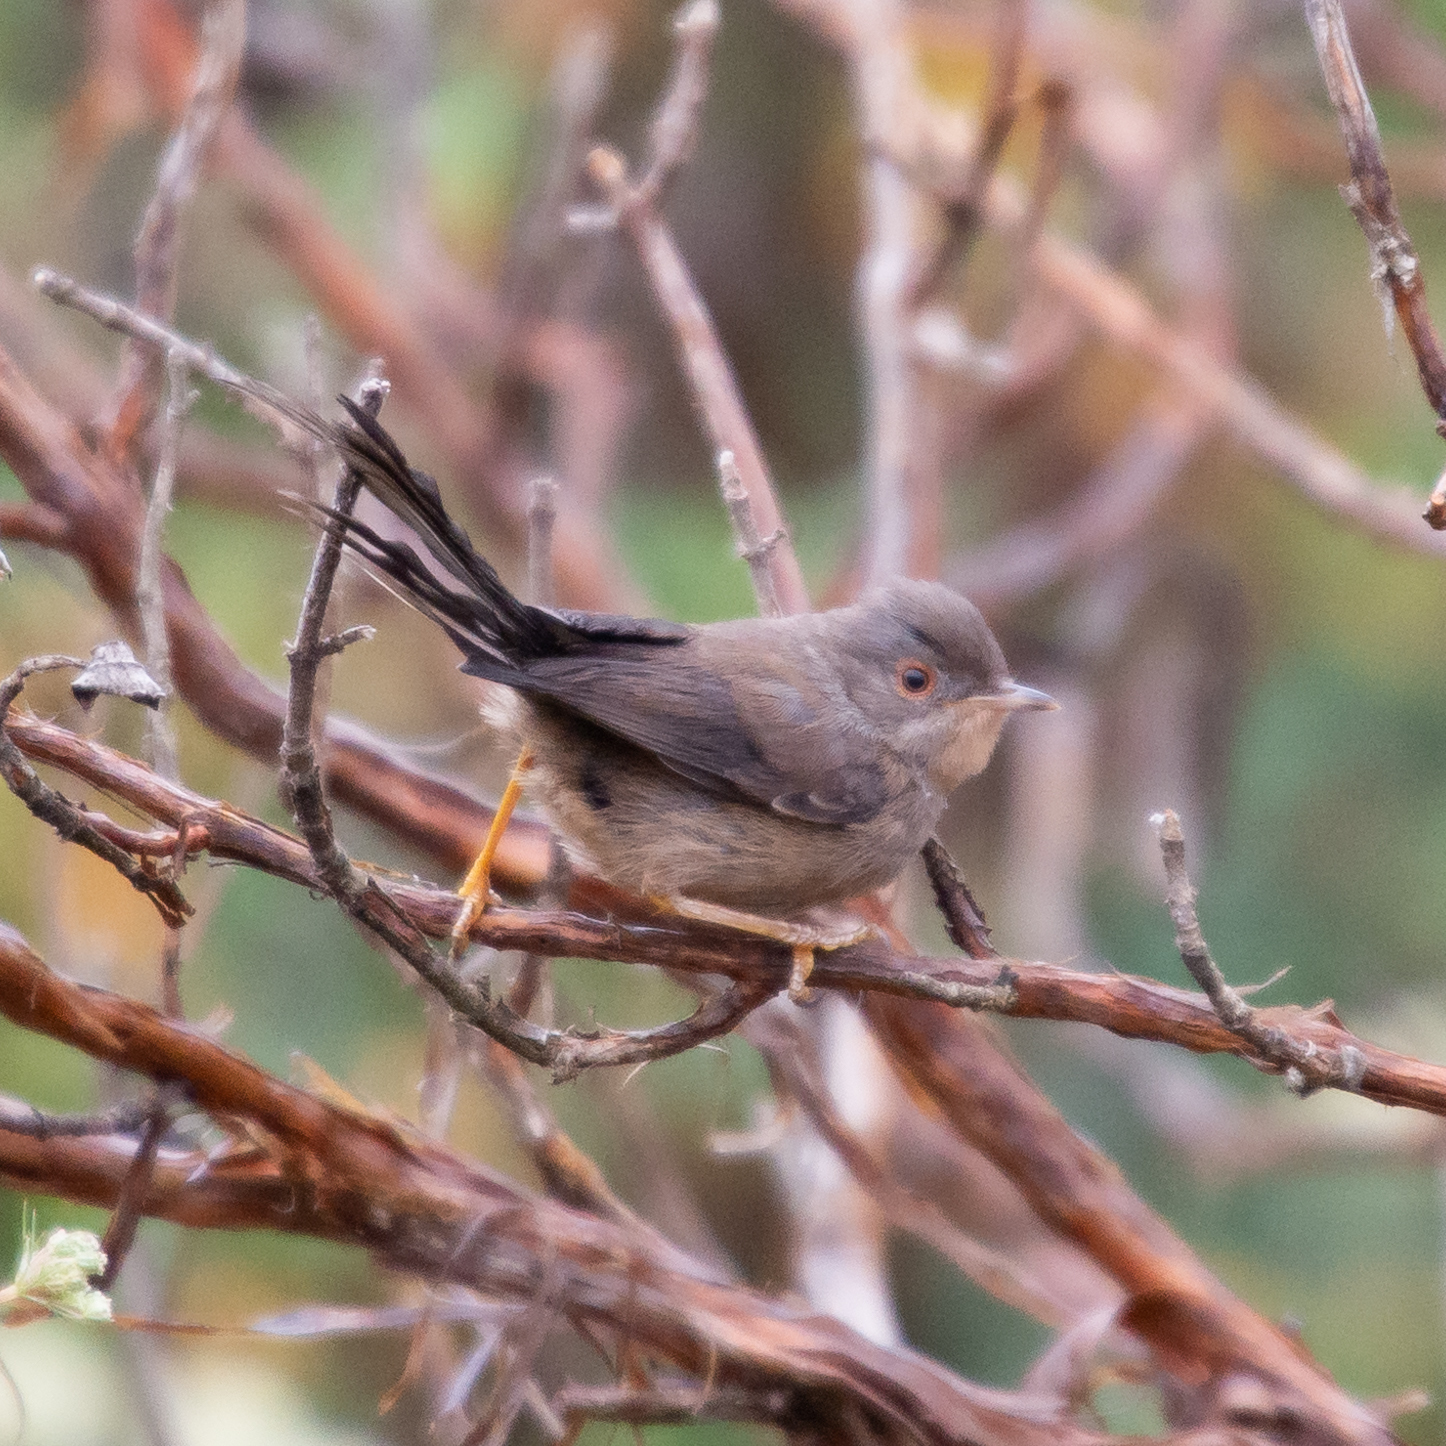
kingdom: Animalia
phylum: Chordata
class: Aves
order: Passeriformes
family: Sylviidae
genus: Sylvia
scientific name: Sylvia undata
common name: Dartford warbler
